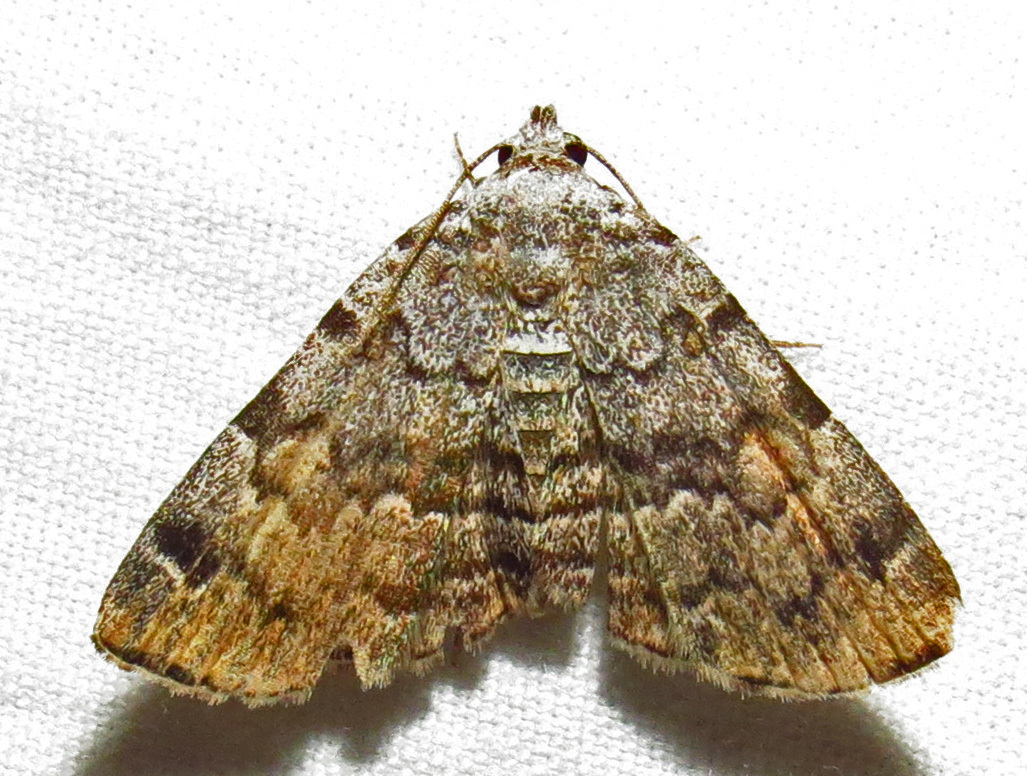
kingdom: Animalia
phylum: Arthropoda
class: Insecta
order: Lepidoptera
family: Erebidae
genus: Idia
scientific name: Idia americalis
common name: American idia moth
